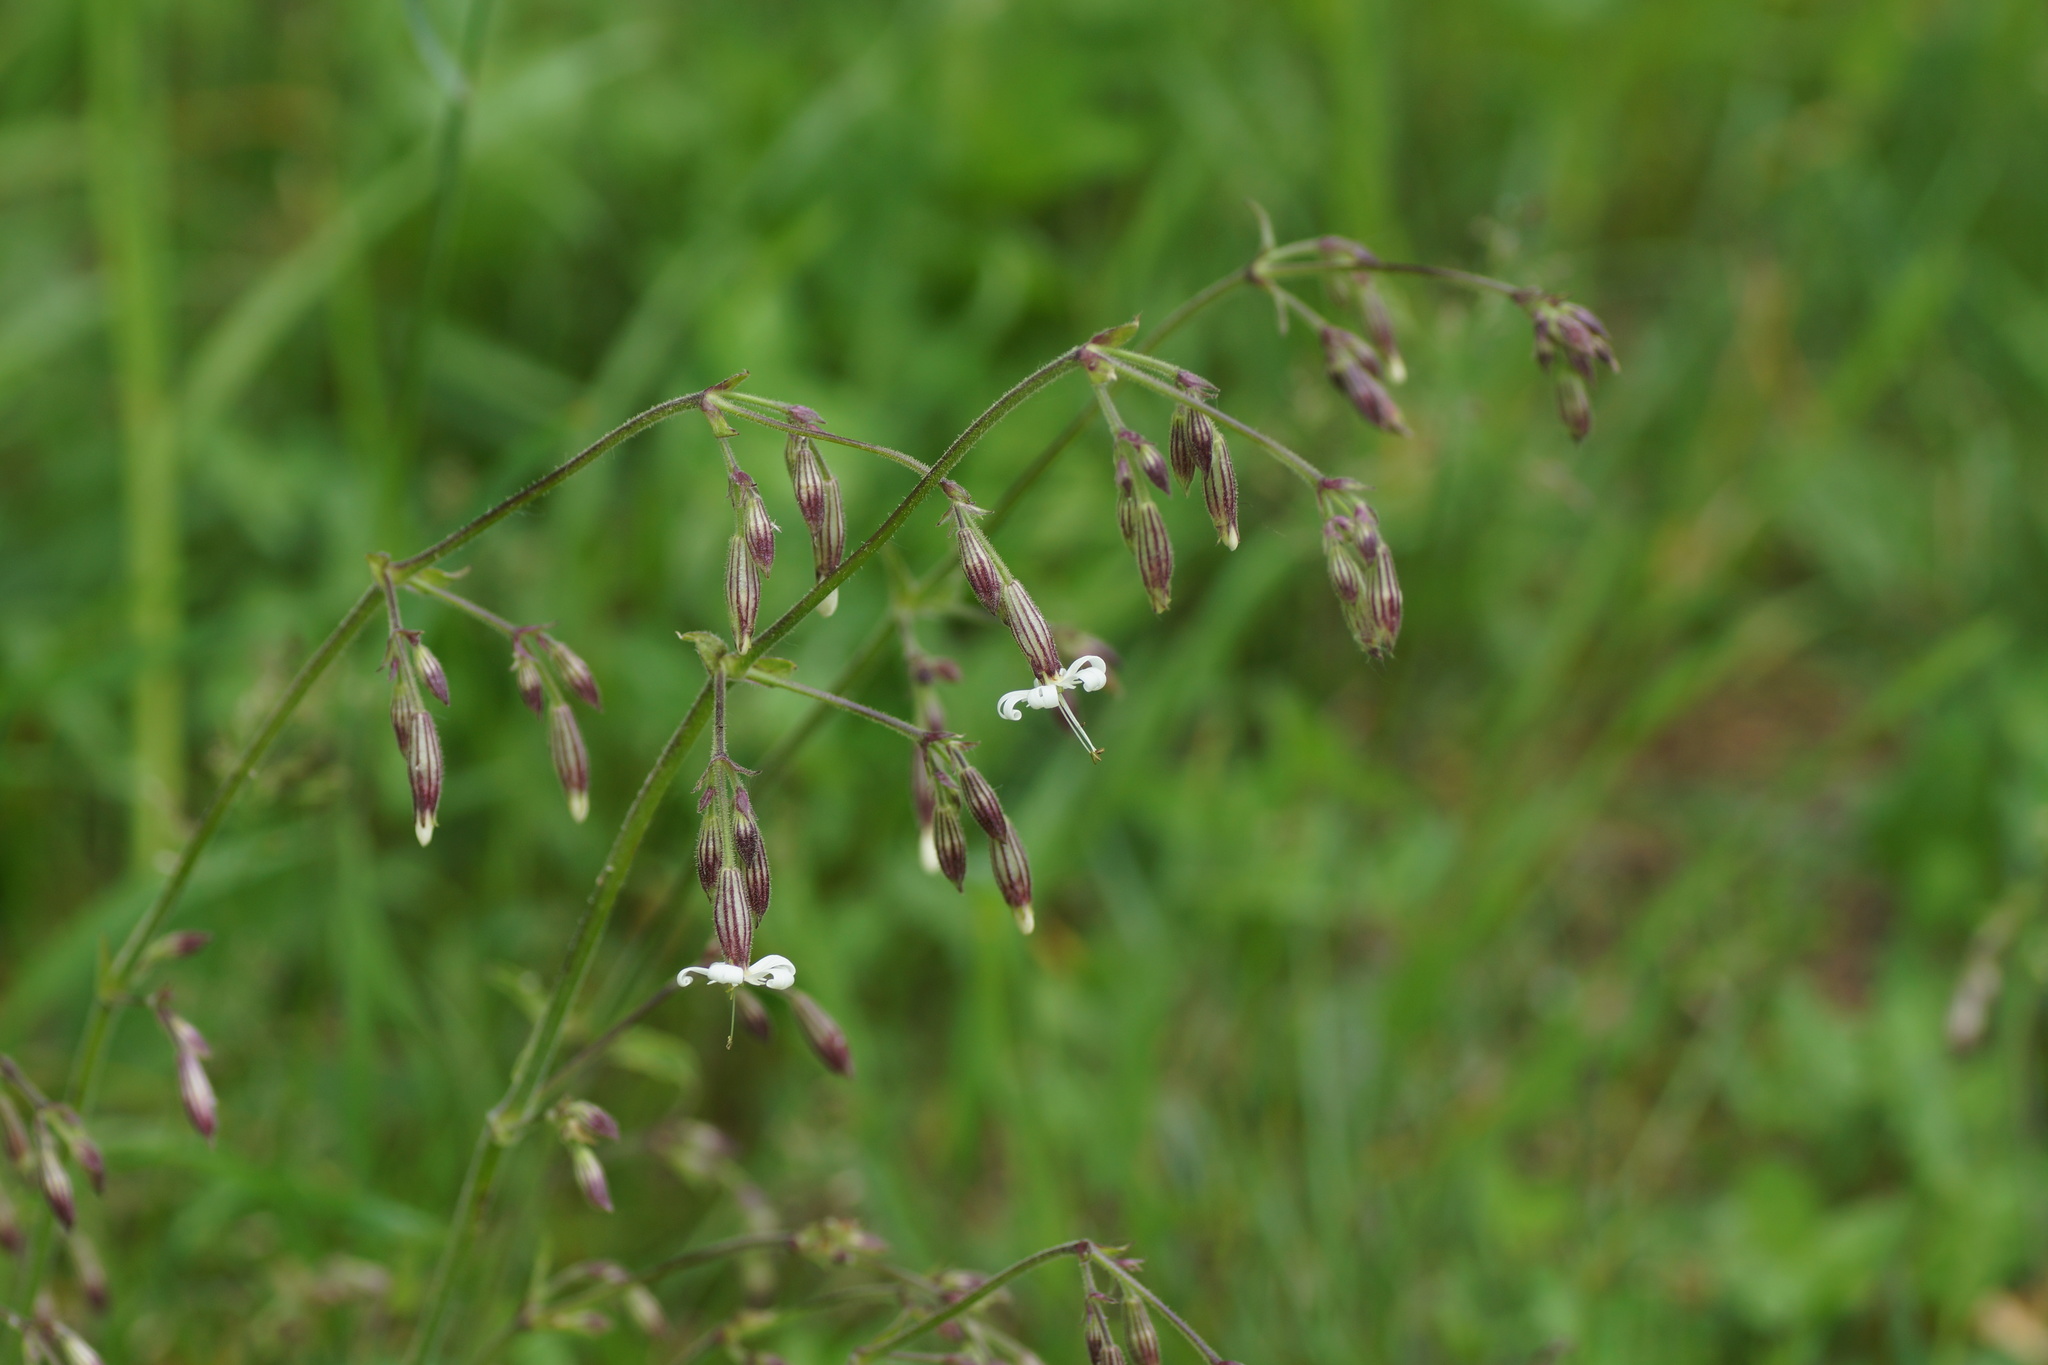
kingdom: Plantae
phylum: Tracheophyta
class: Magnoliopsida
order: Caryophyllales
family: Caryophyllaceae
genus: Silene
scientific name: Silene nutans
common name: Nottingham catchfly
